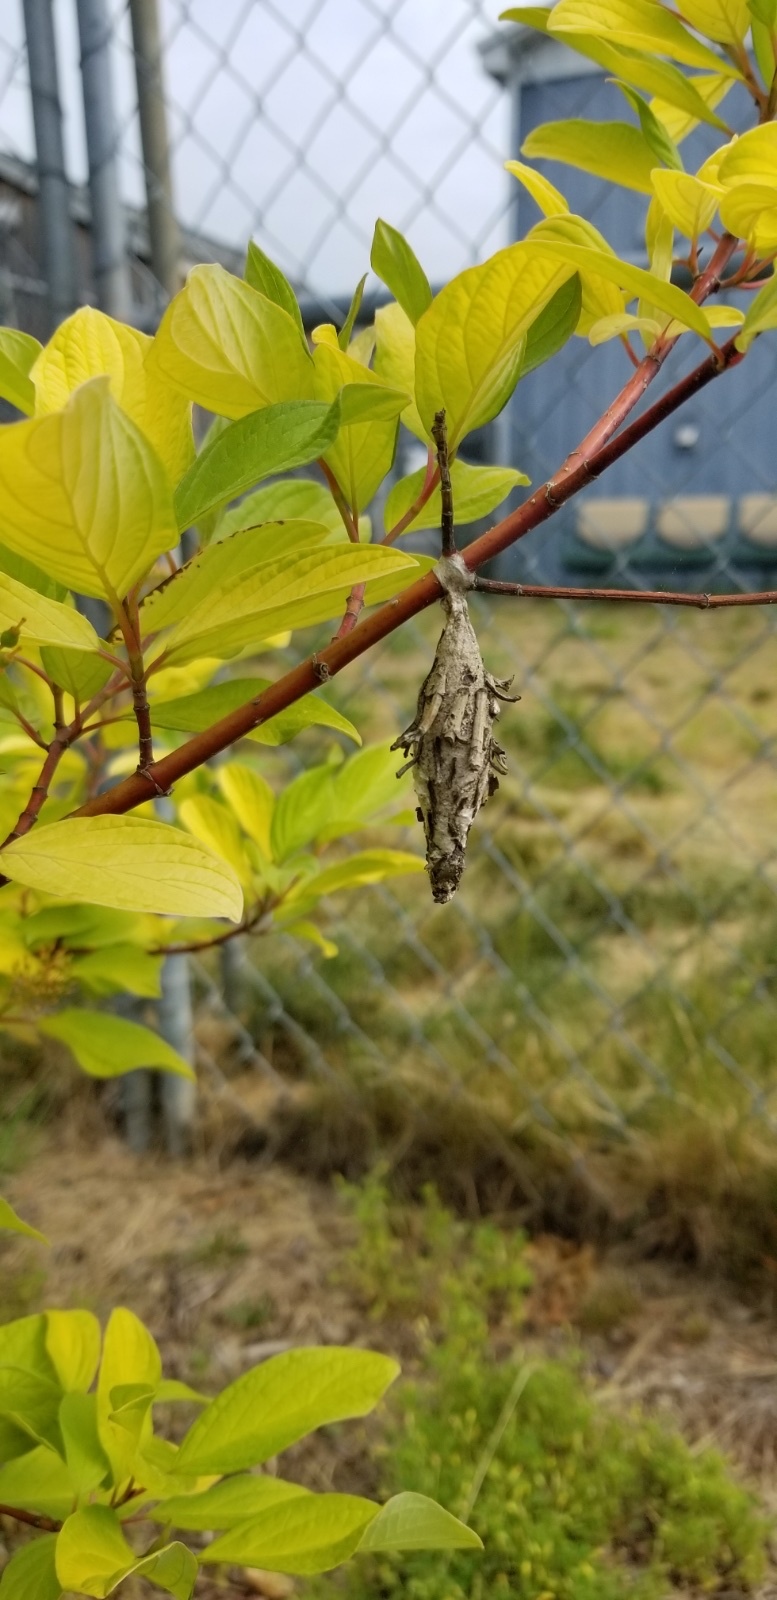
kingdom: Animalia
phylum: Arthropoda
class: Insecta
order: Lepidoptera
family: Psychidae
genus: Thyridopteryx
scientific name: Thyridopteryx ephemeraeformis
